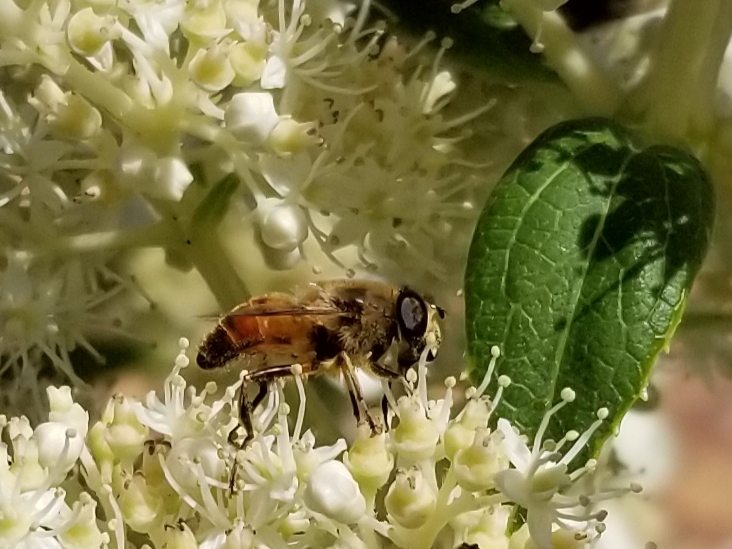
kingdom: Animalia
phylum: Arthropoda
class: Insecta
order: Diptera
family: Syrphidae
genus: Eristalis
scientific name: Eristalis tenax
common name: Drone fly
